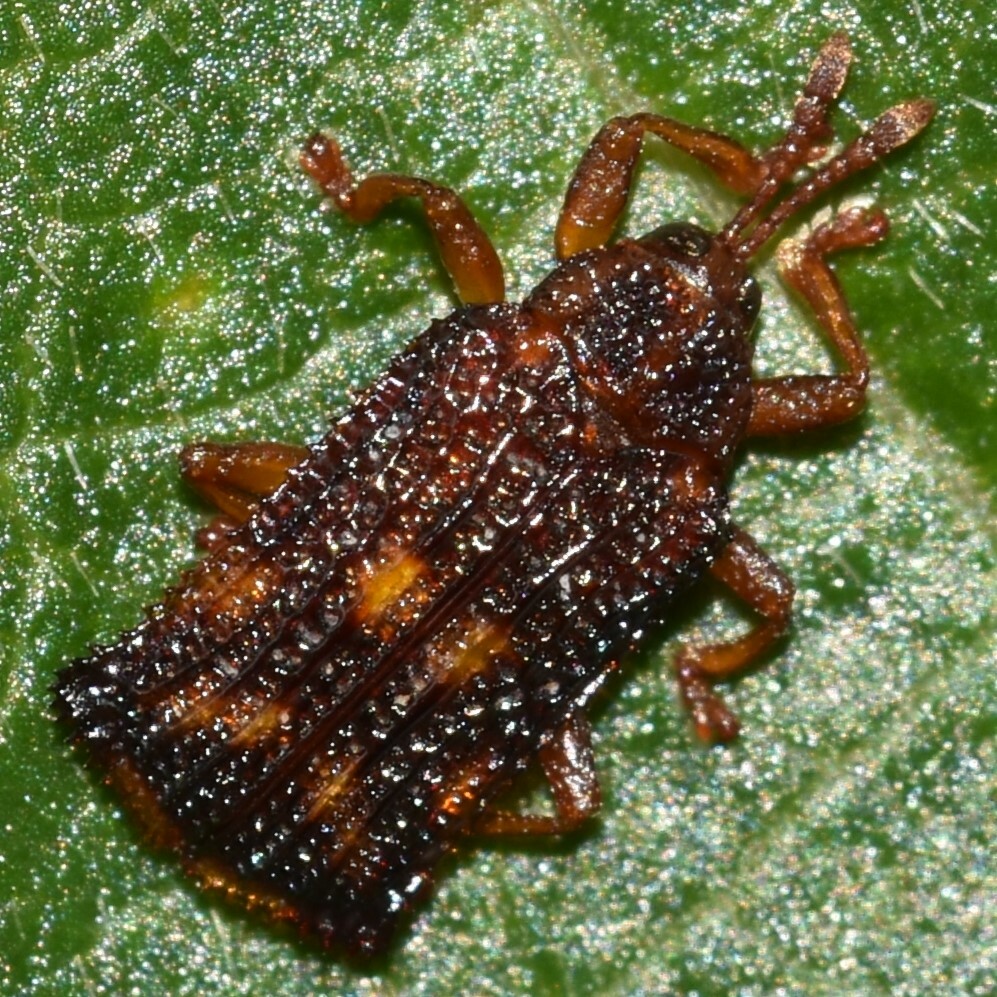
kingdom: Animalia
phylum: Arthropoda
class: Insecta
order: Coleoptera
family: Chrysomelidae
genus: Uroplata
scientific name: Uroplata girardi
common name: Lantana leafminer
